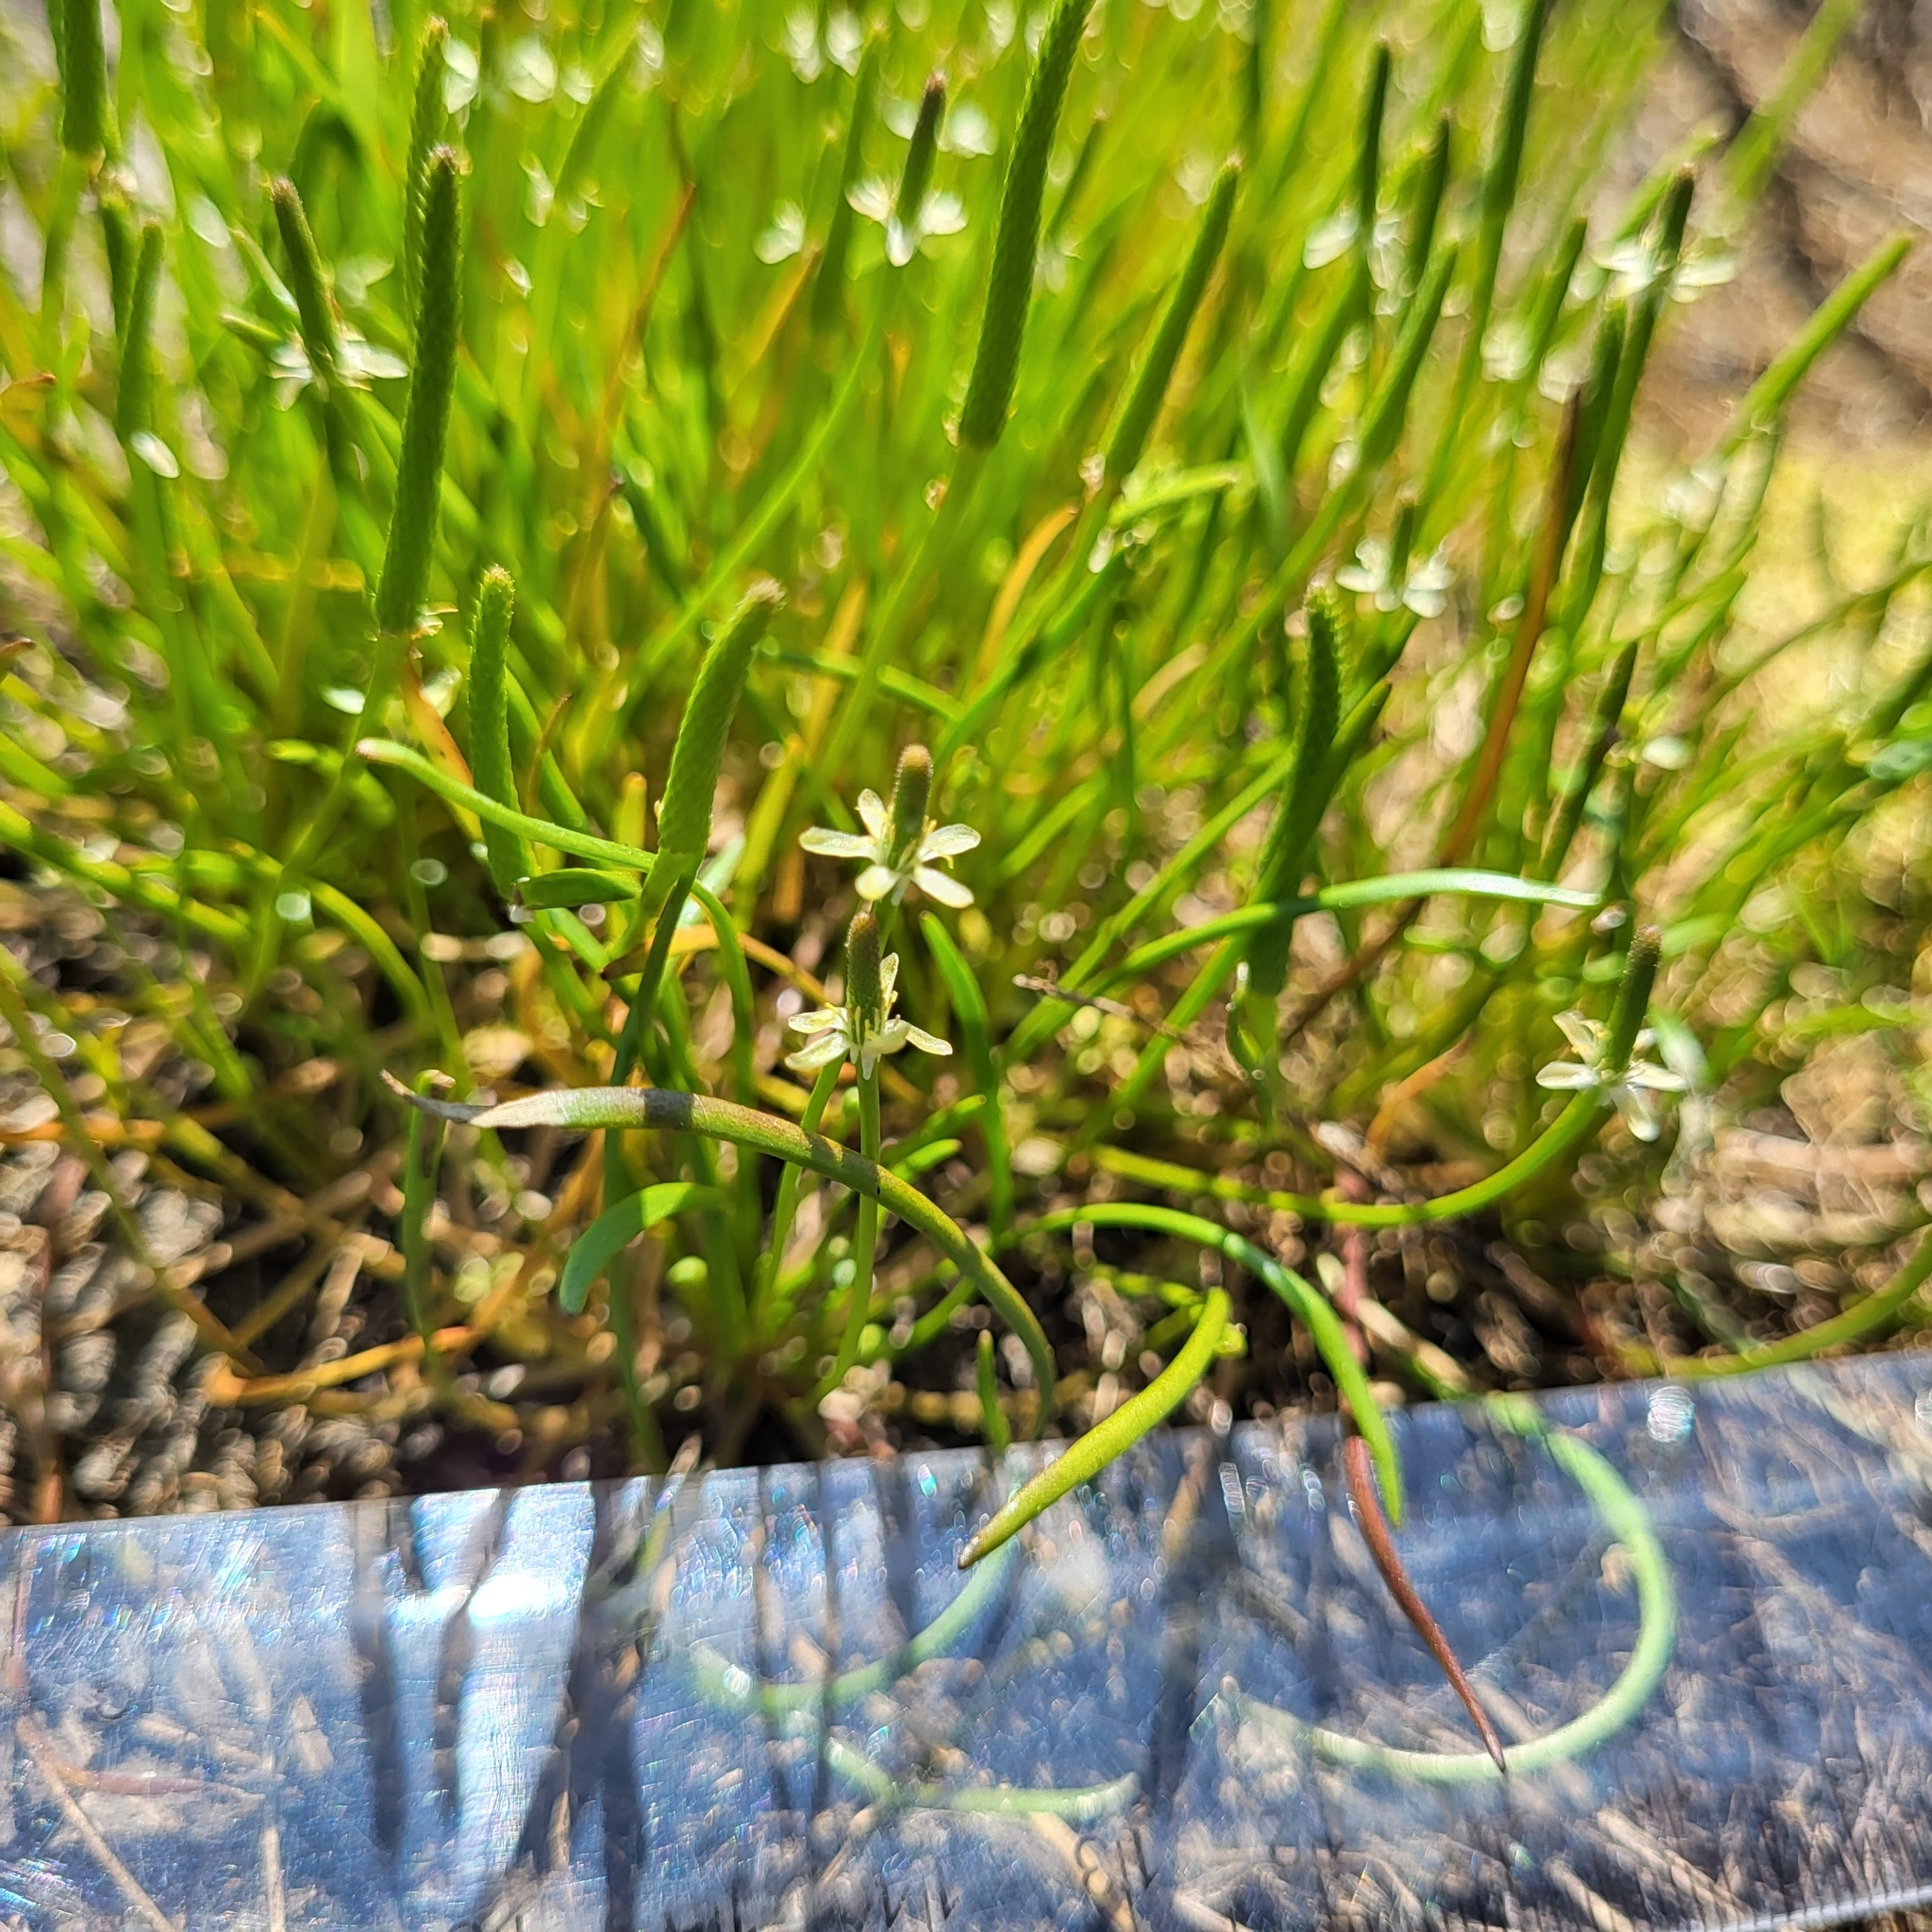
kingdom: Plantae
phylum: Tracheophyta
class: Magnoliopsida
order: Ranunculales
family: Ranunculaceae
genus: Myosurus
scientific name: Myosurus minimus
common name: Mousetail
